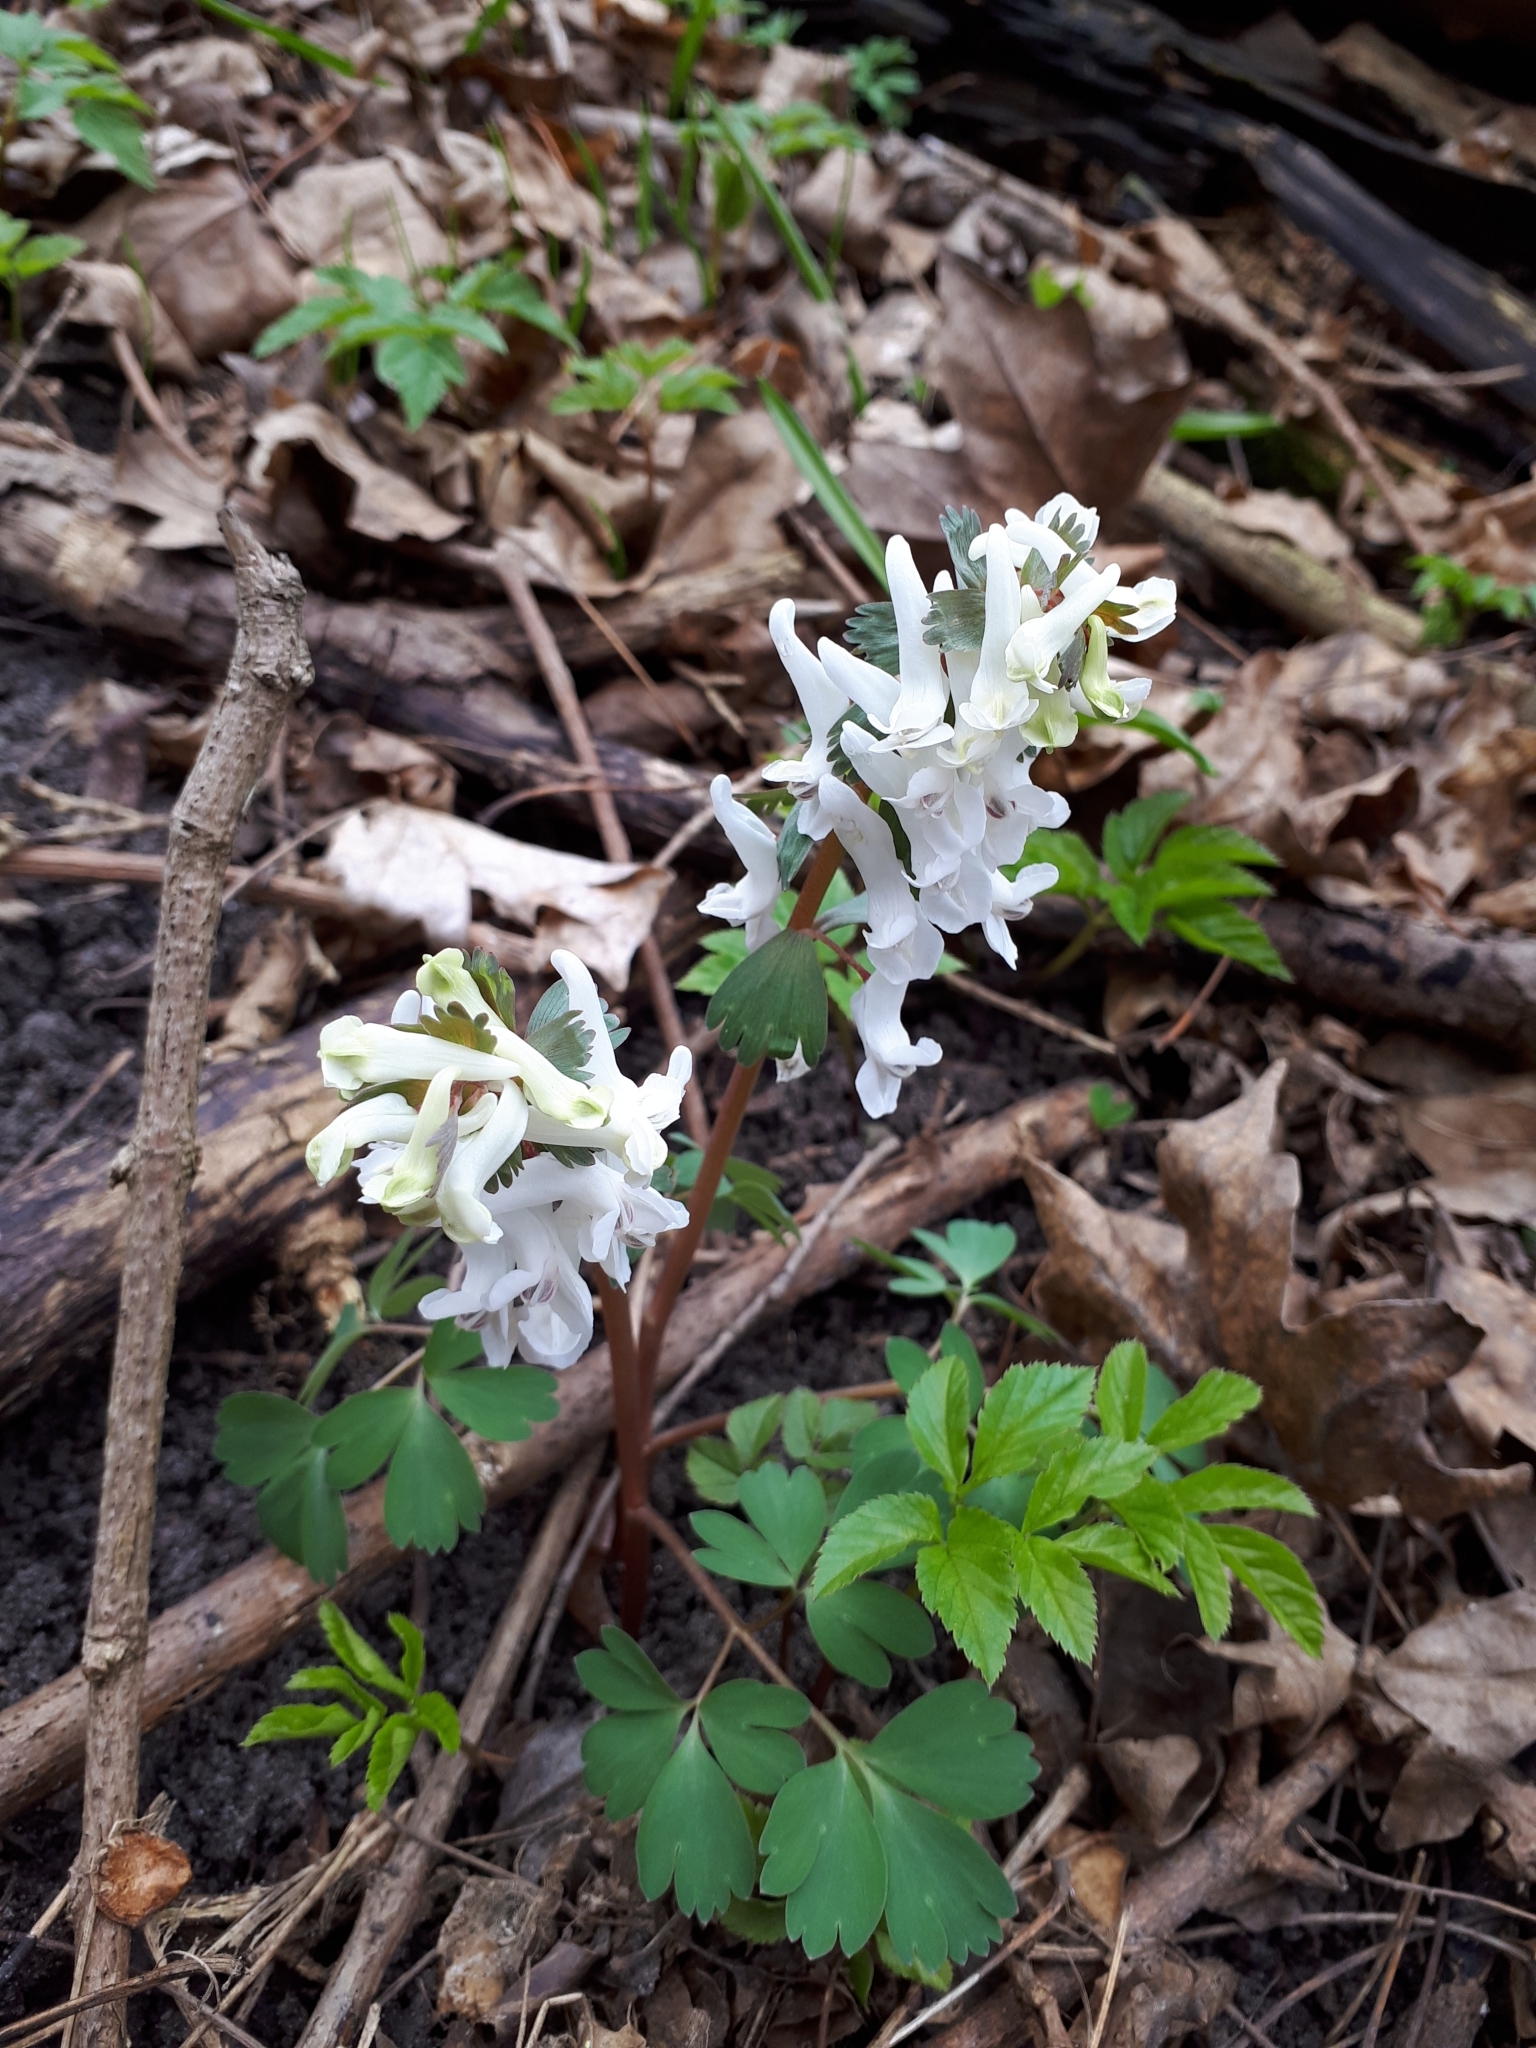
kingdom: Plantae
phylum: Tracheophyta
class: Magnoliopsida
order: Ranunculales
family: Papaveraceae
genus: Corydalis
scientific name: Corydalis solida
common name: Bird-in-a-bush
